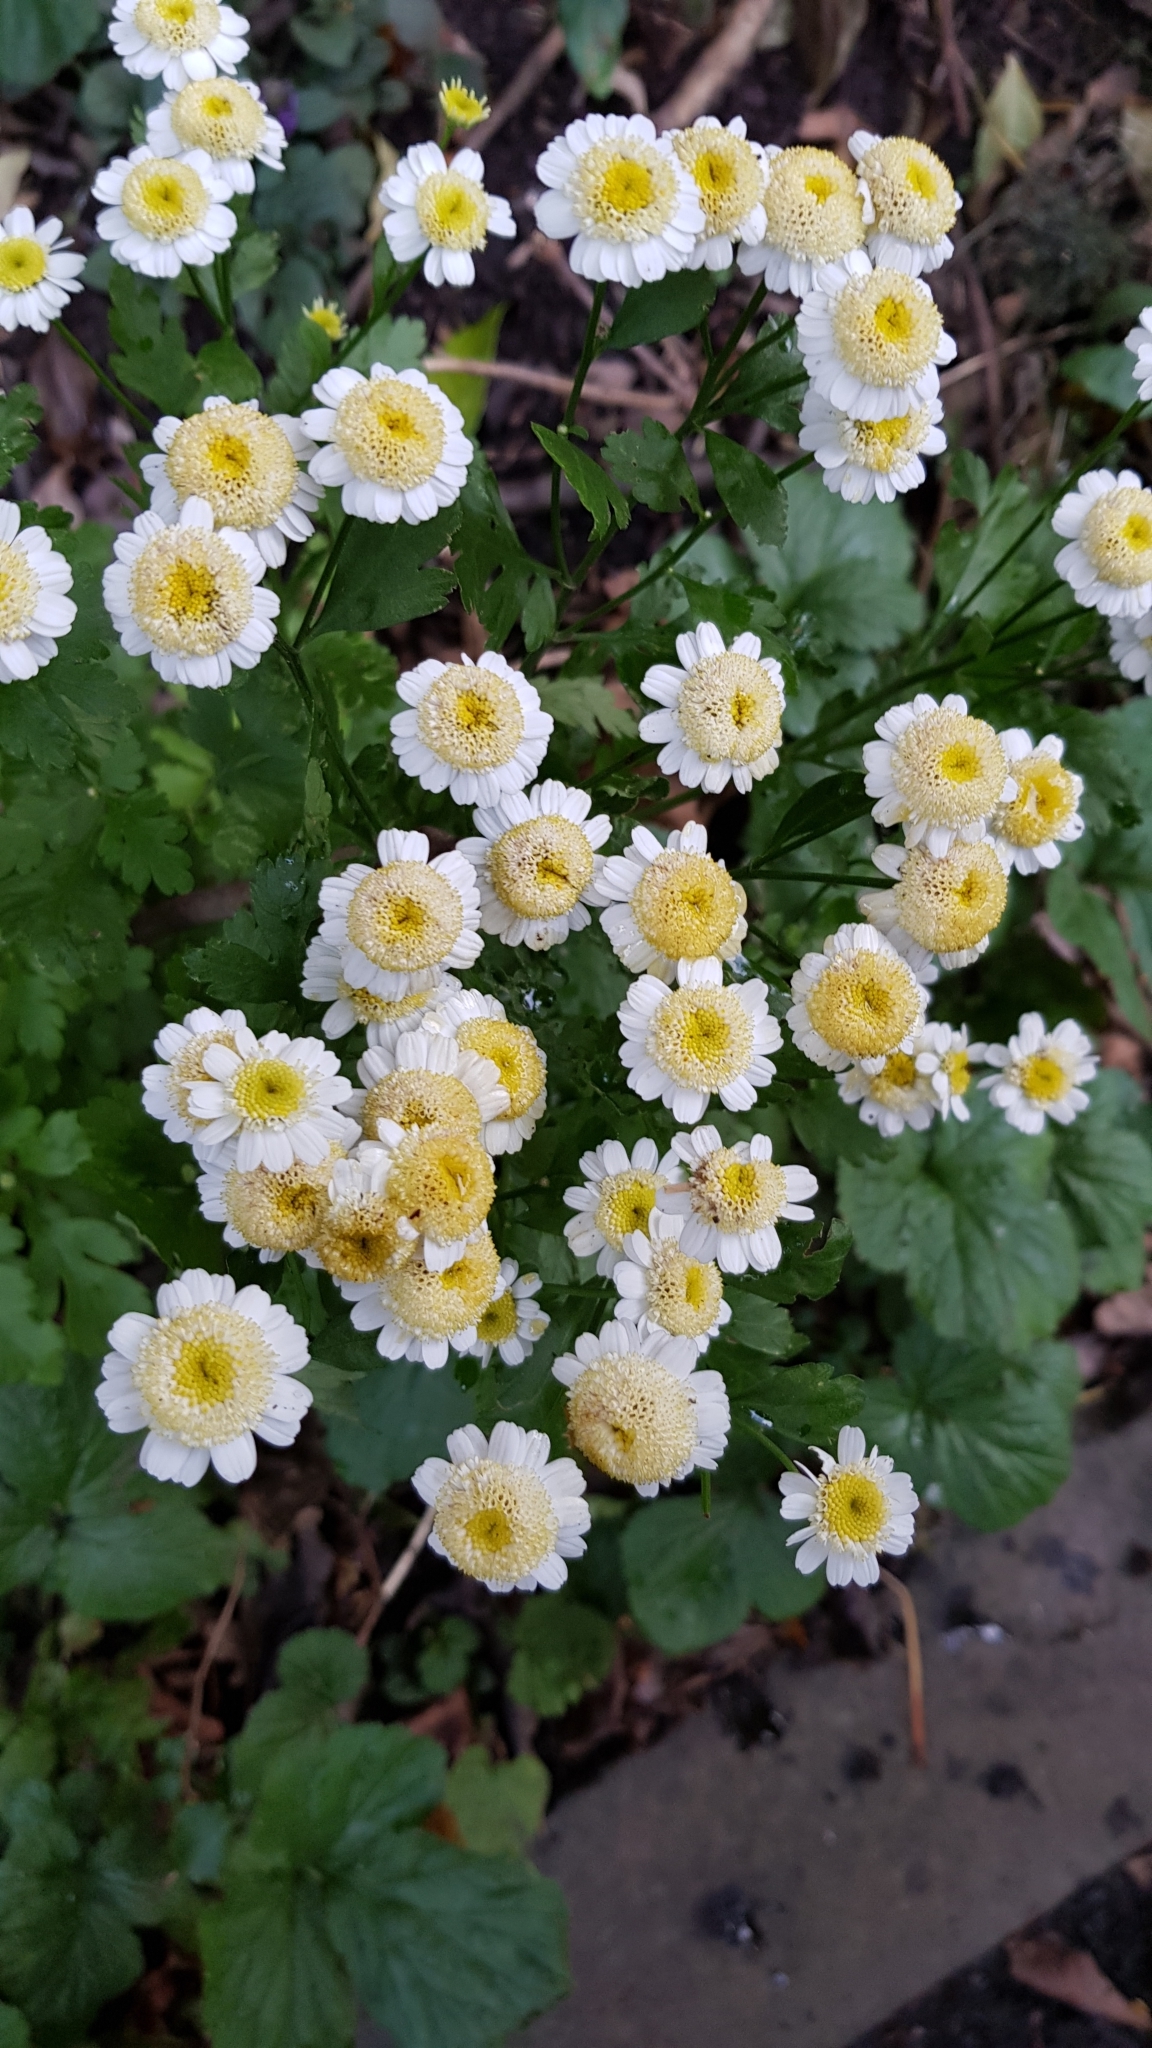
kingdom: Plantae
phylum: Tracheophyta
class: Magnoliopsida
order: Asterales
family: Asteraceae
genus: Tanacetum
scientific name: Tanacetum parthenium
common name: Feverfew
